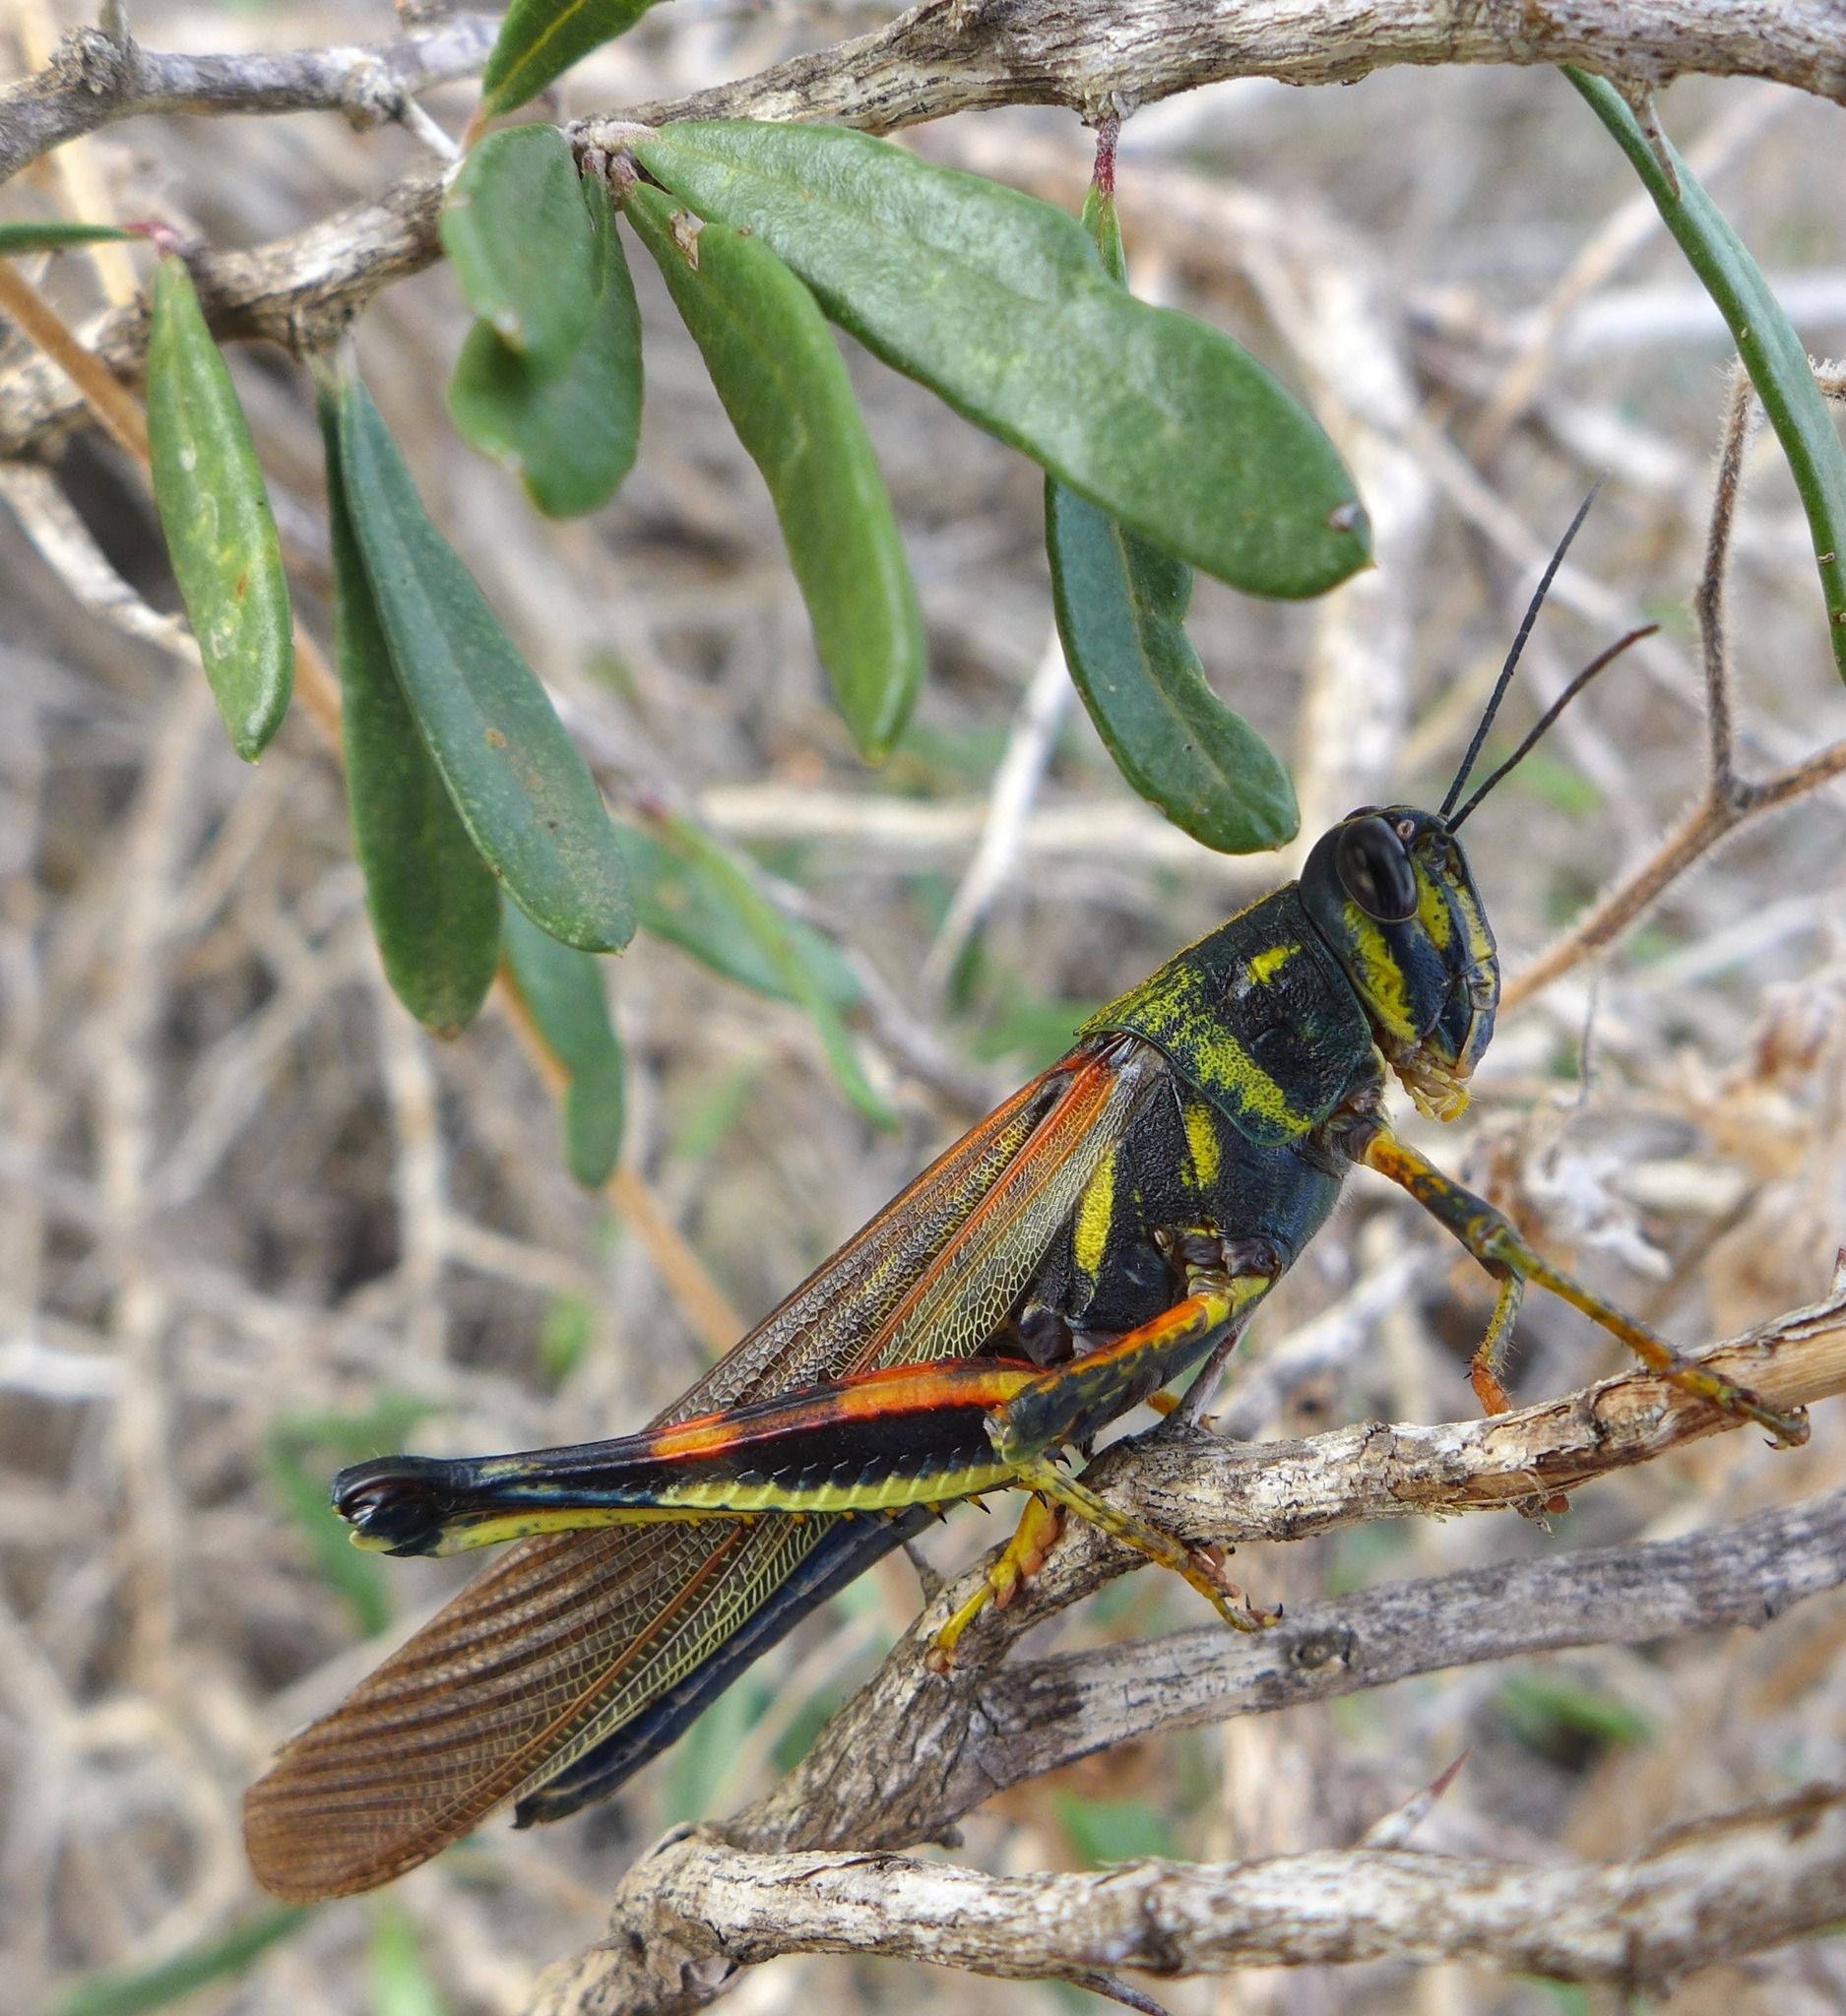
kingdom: Animalia
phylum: Arthropoda
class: Insecta
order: Orthoptera
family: Acrididae
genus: Schistocerca
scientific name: Schistocerca melanocera
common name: Large painted locust
